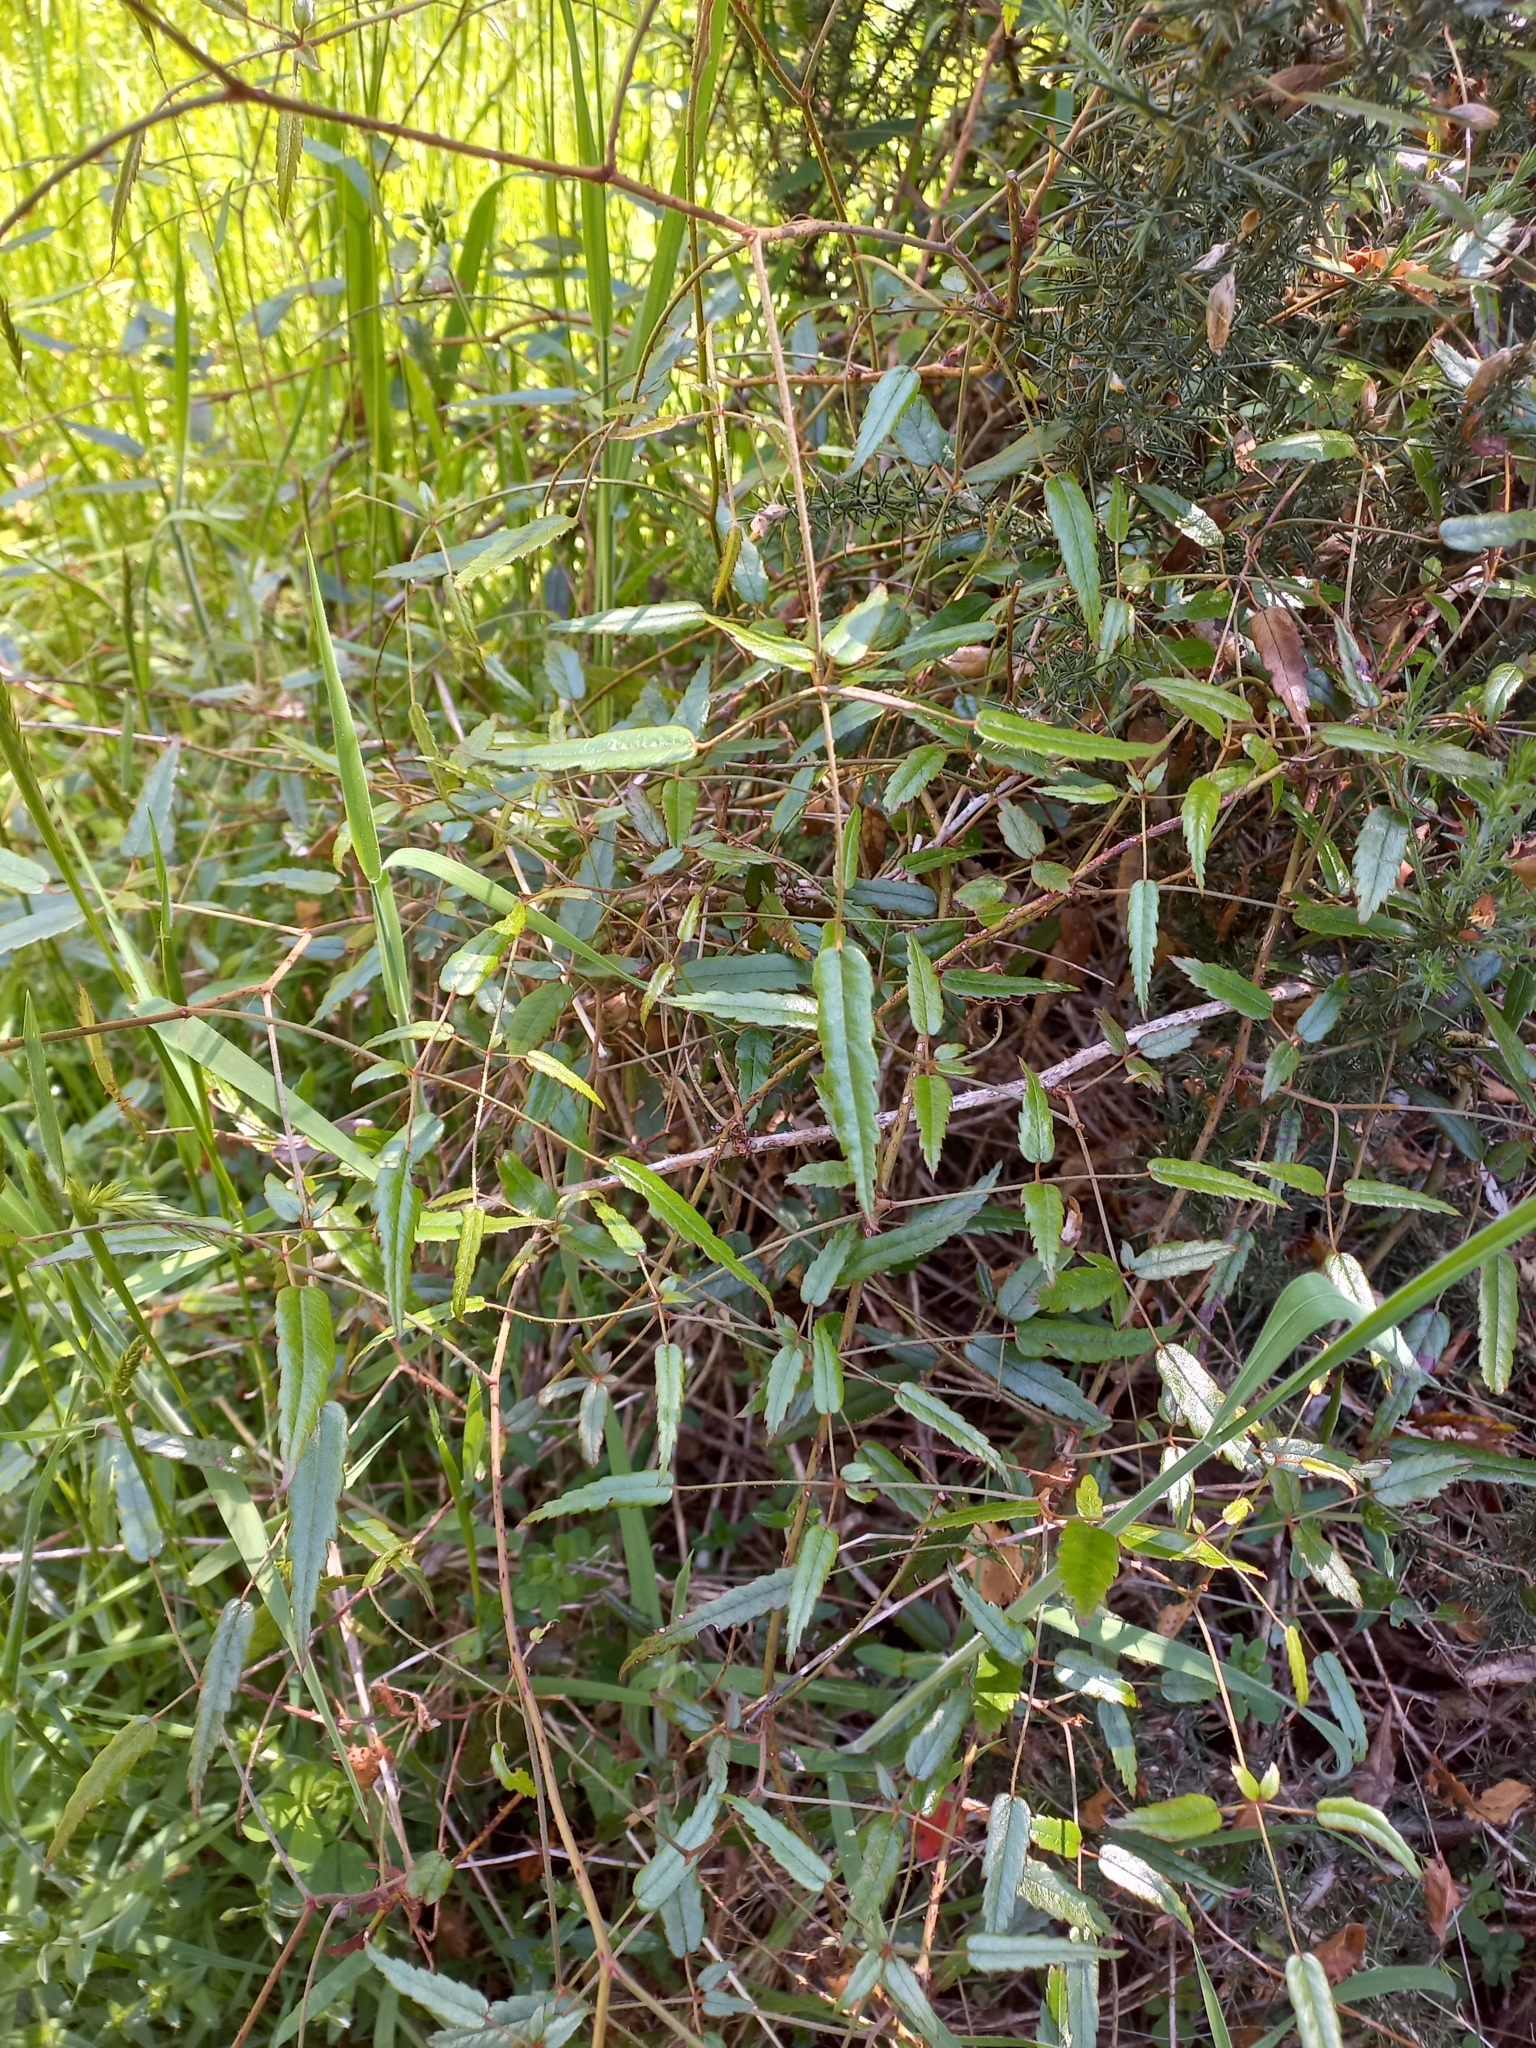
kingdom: Plantae
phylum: Tracheophyta
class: Magnoliopsida
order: Rosales
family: Rosaceae
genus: Rubus
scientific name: Rubus schmidelioides
